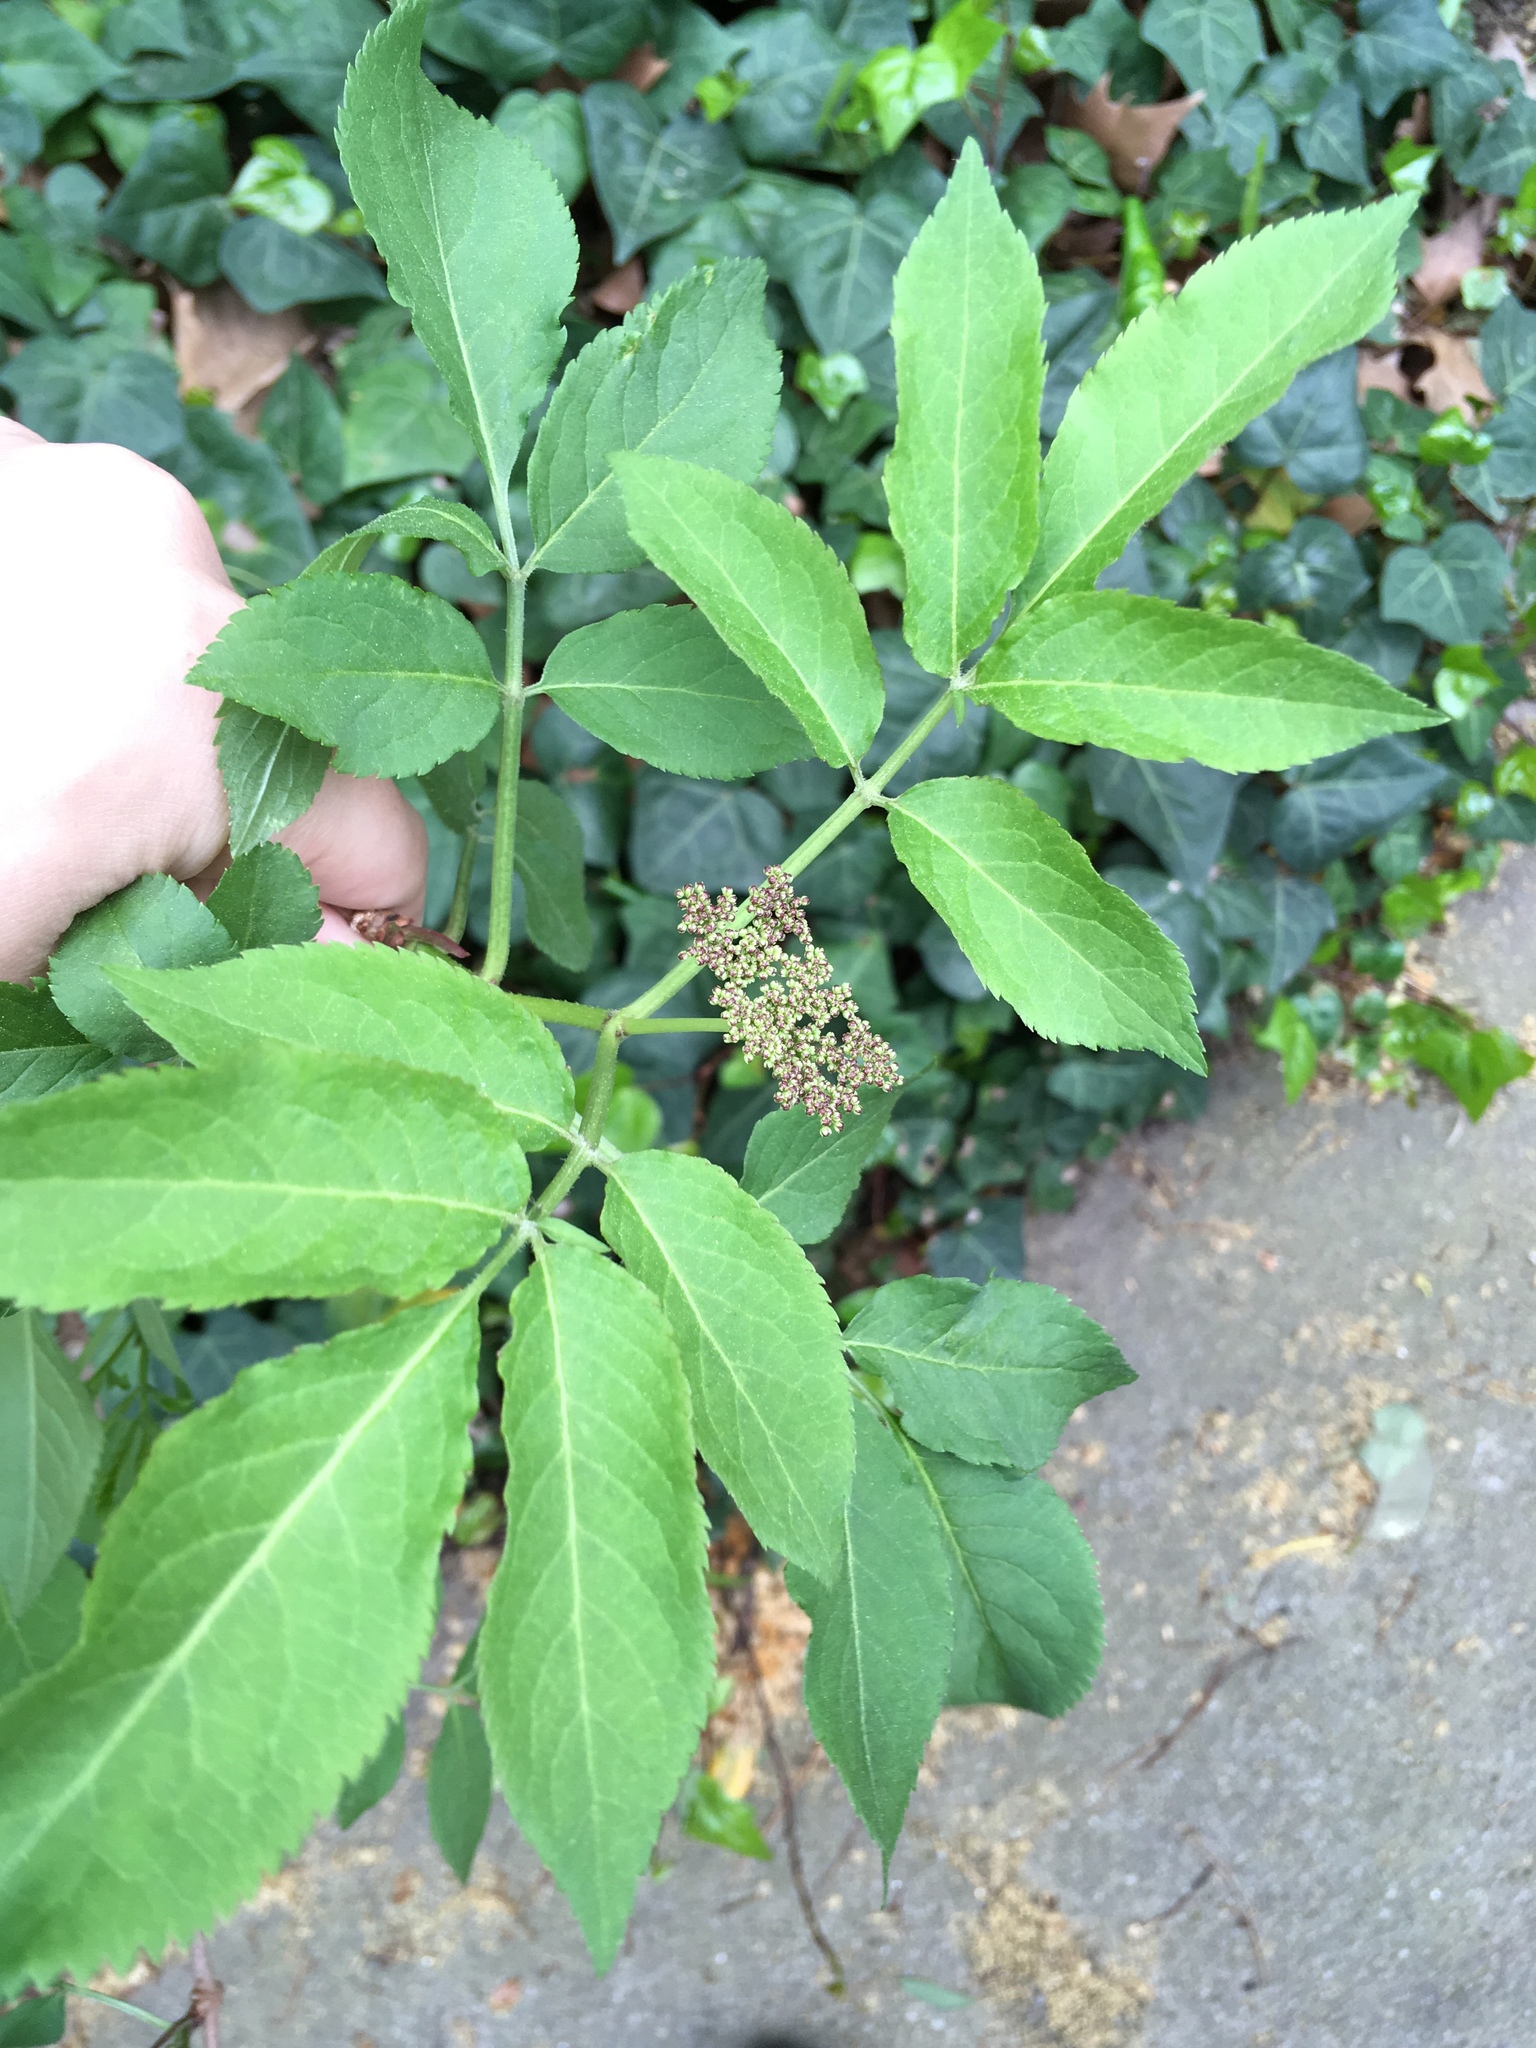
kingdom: Plantae
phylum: Tracheophyta
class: Magnoliopsida
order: Dipsacales
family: Viburnaceae
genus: Sambucus
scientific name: Sambucus nigra
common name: Elder
